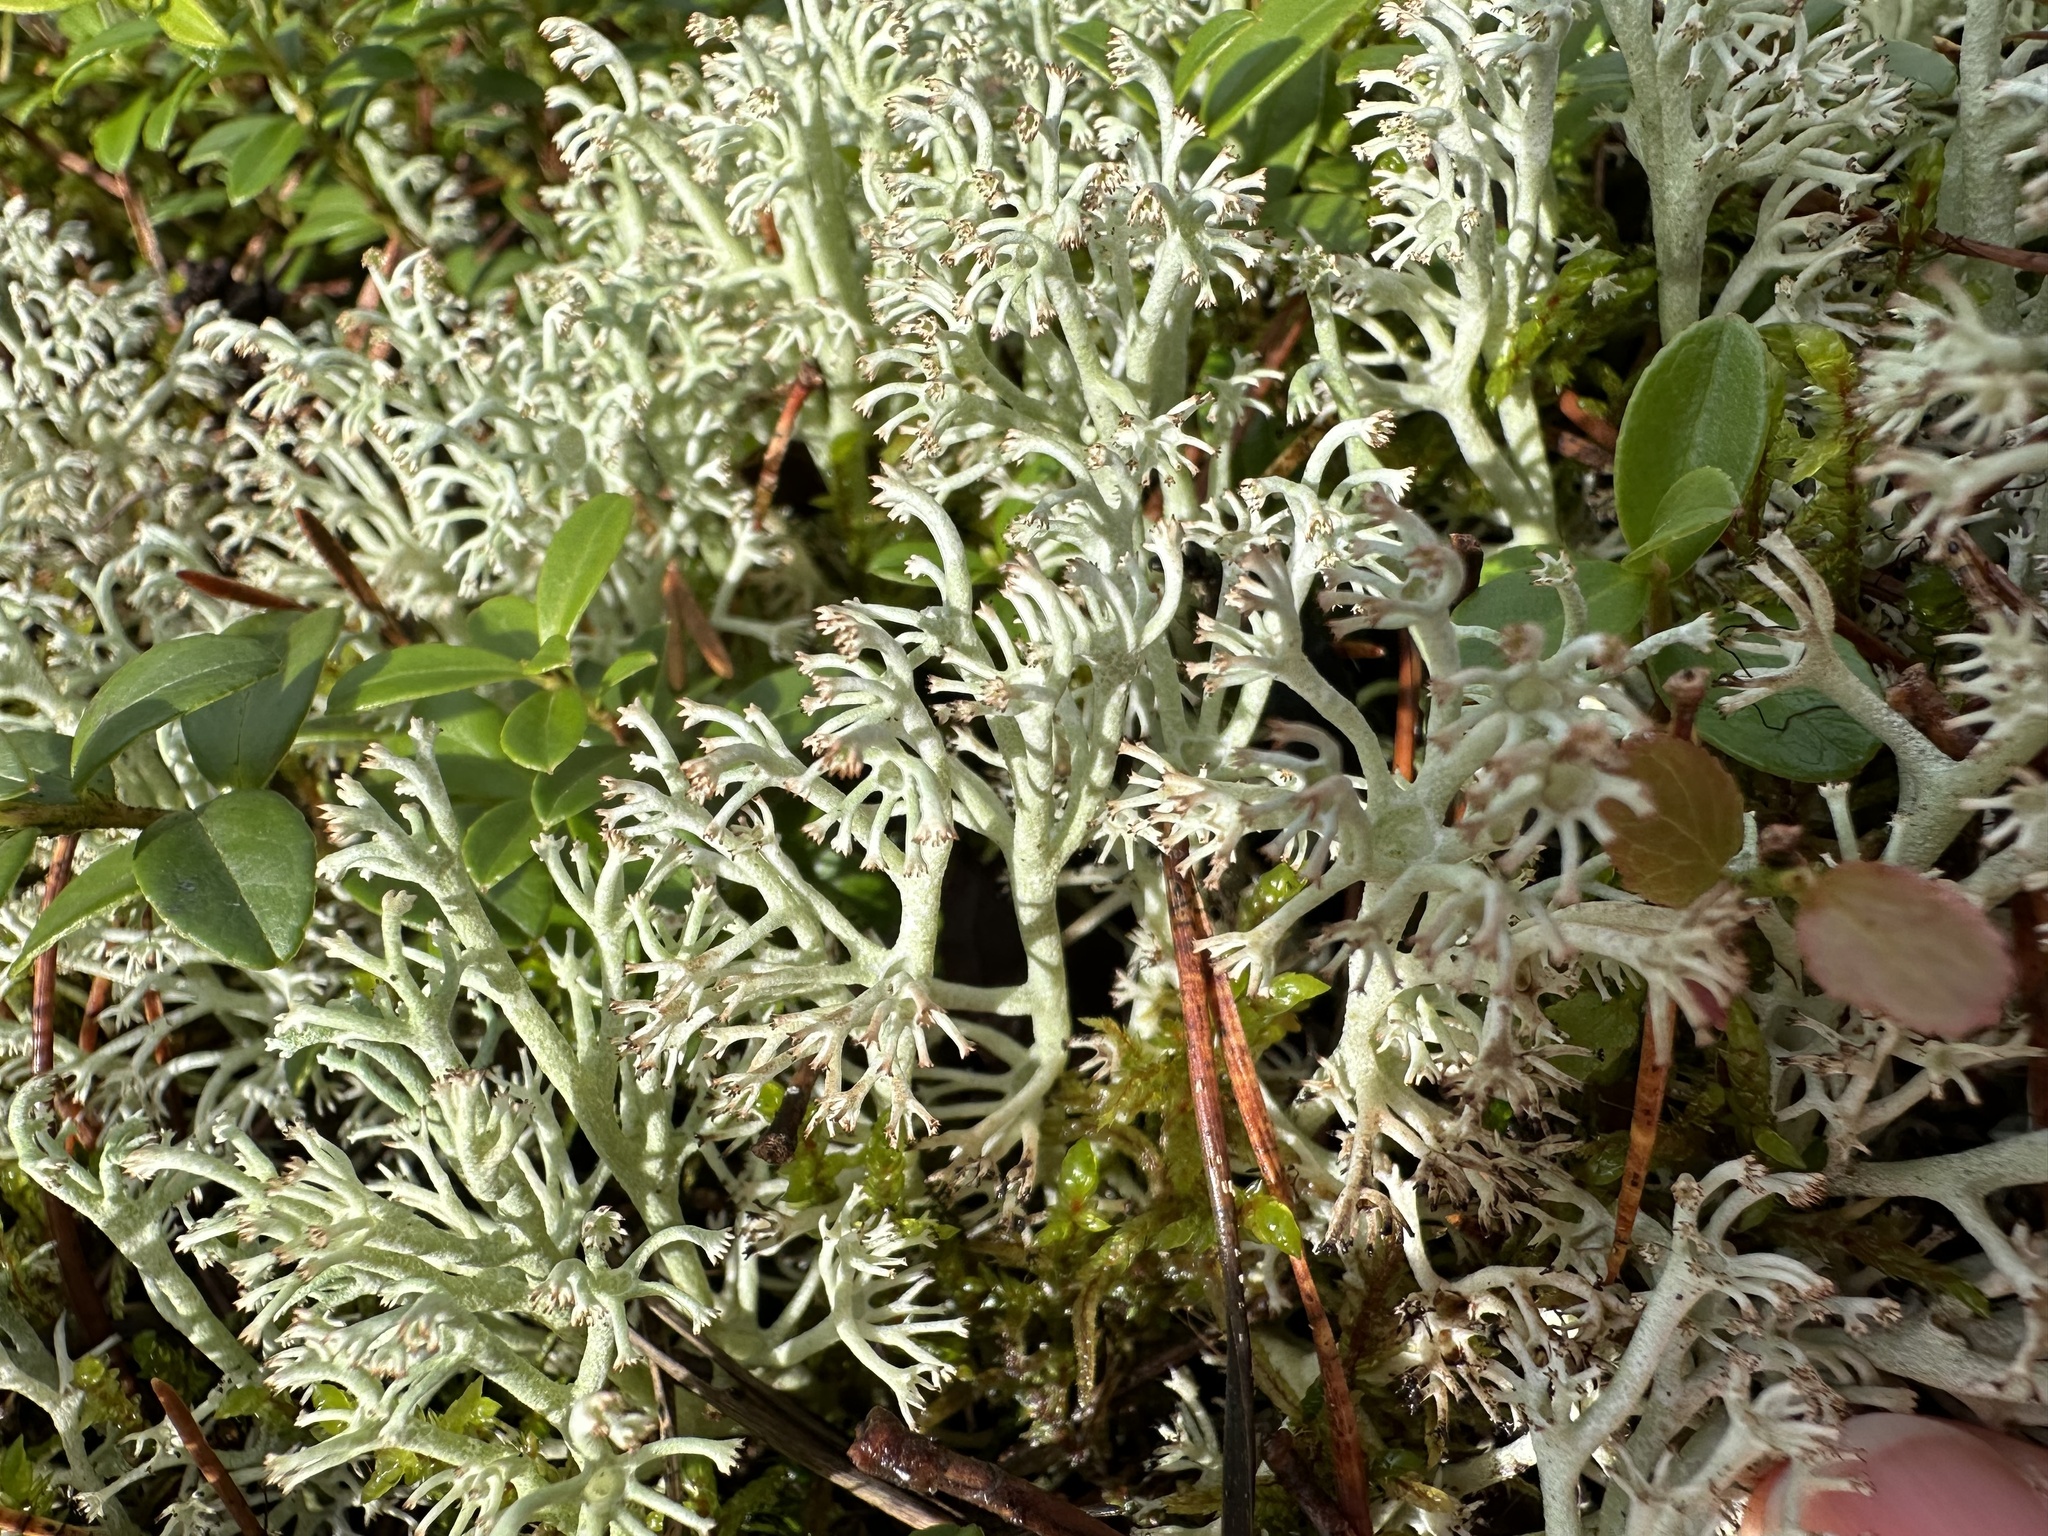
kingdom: Fungi
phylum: Ascomycota
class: Lecanoromycetes
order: Lecanorales
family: Cladoniaceae
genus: Cladonia
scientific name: Cladonia rangiferina
